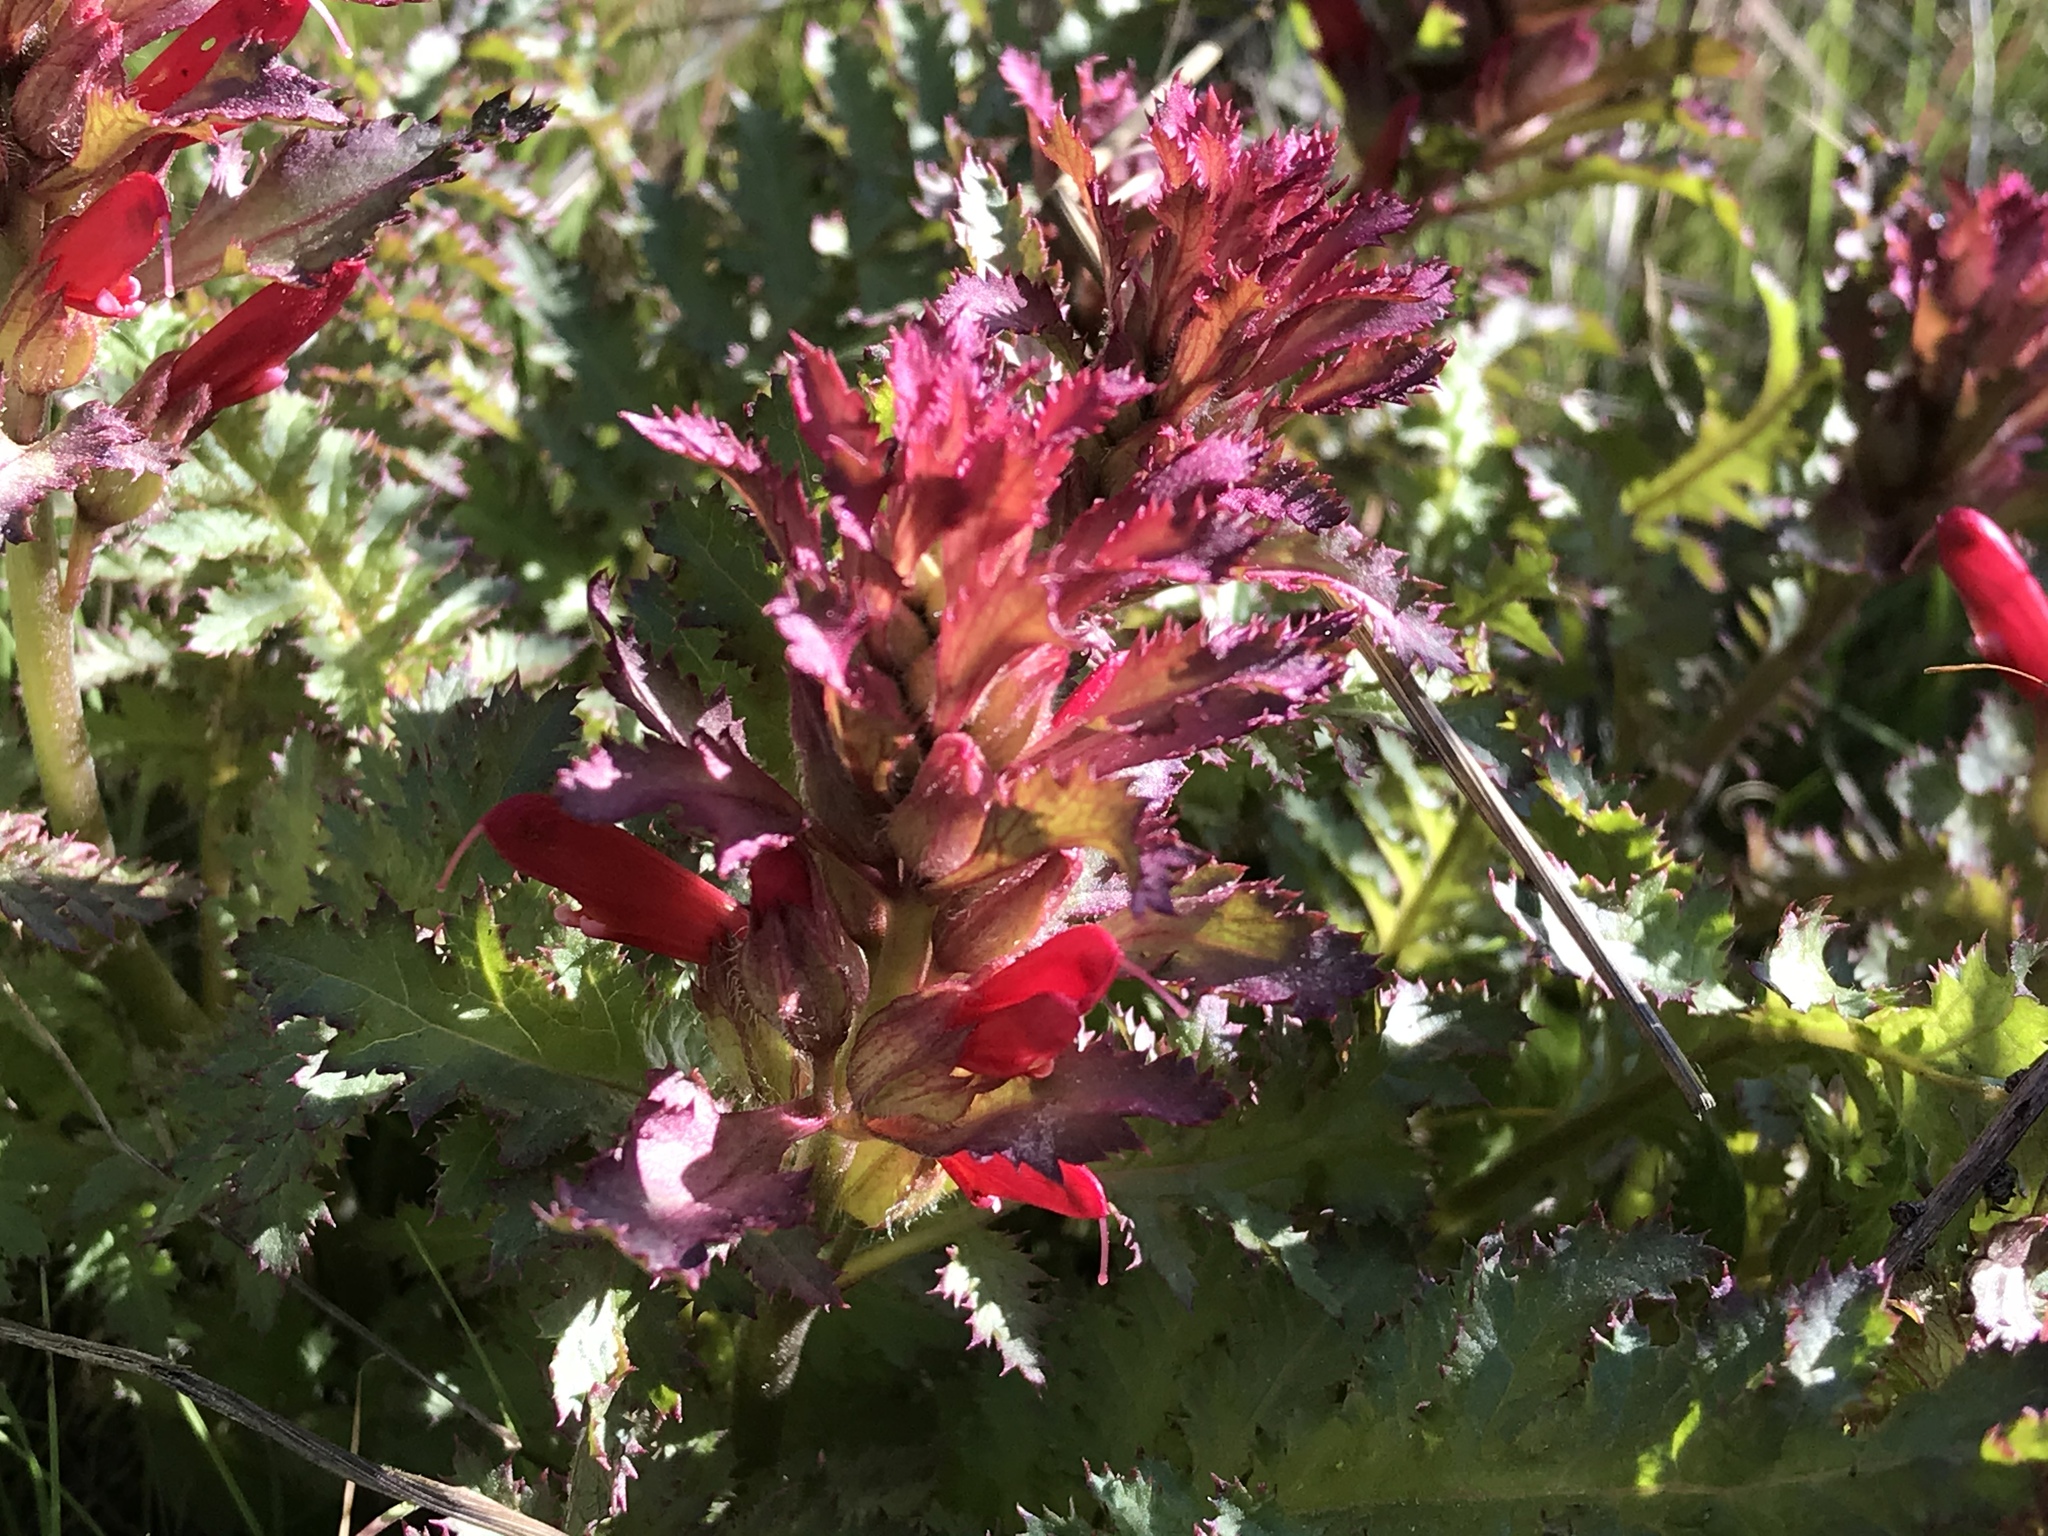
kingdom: Plantae
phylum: Tracheophyta
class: Magnoliopsida
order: Lamiales
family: Orobanchaceae
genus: Pedicularis
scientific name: Pedicularis densiflora
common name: Indian warrior
